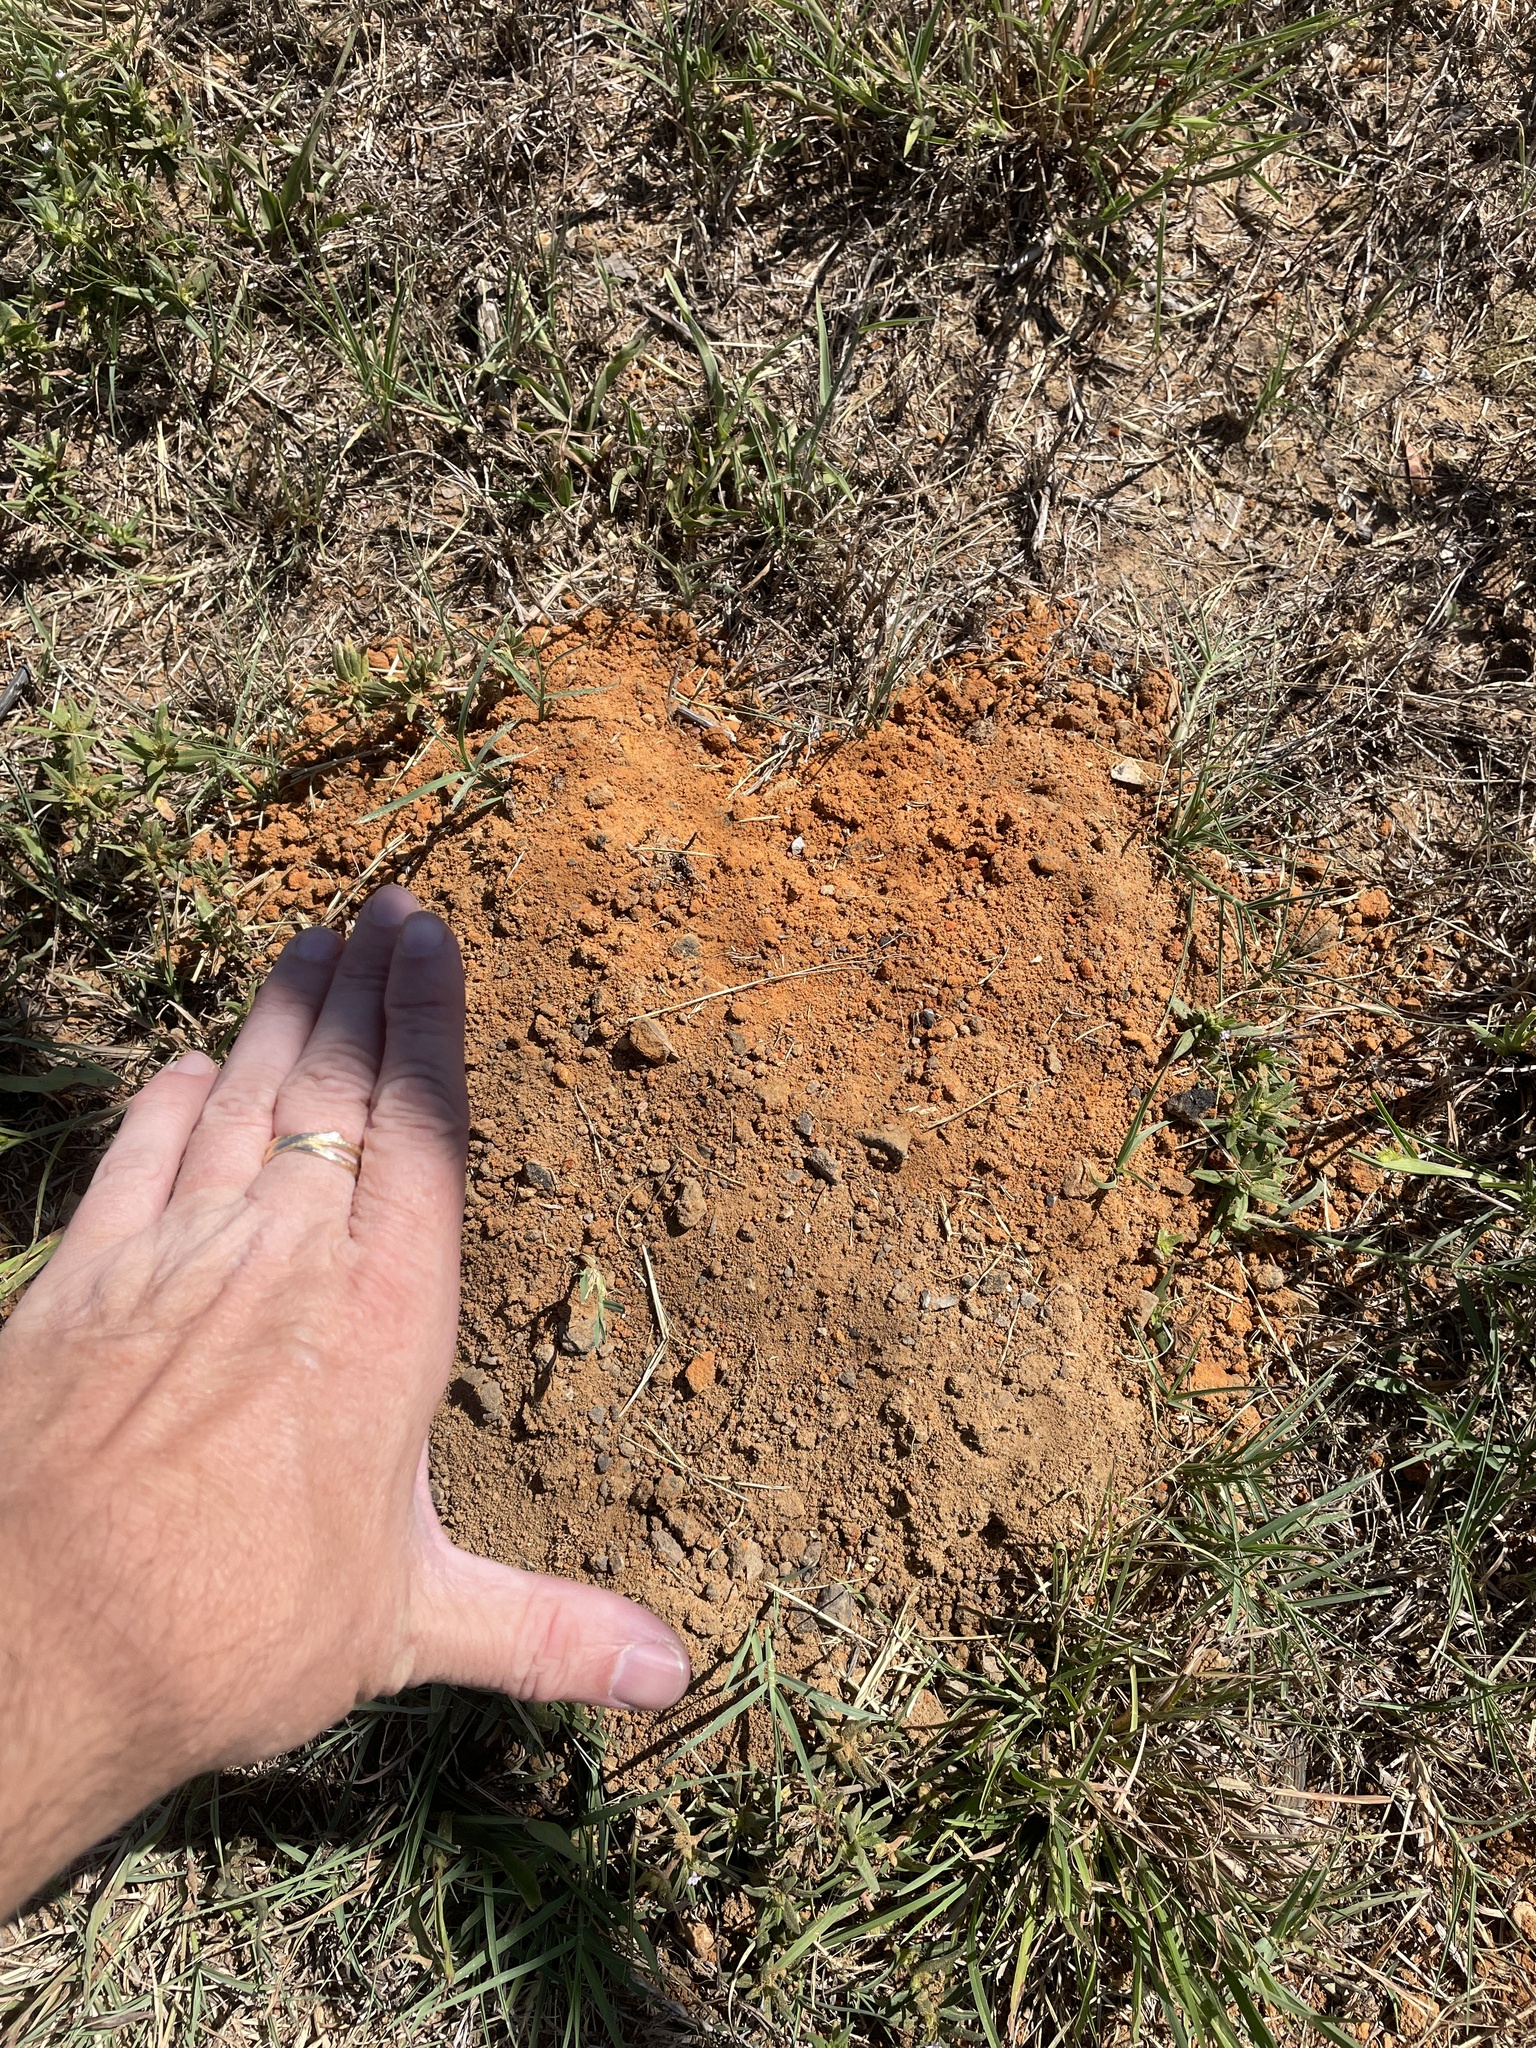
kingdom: Animalia
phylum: Chordata
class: Mammalia
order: Rodentia
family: Geomyidae
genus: Geomys
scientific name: Geomys breviceps
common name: Baird's pocket gopher
